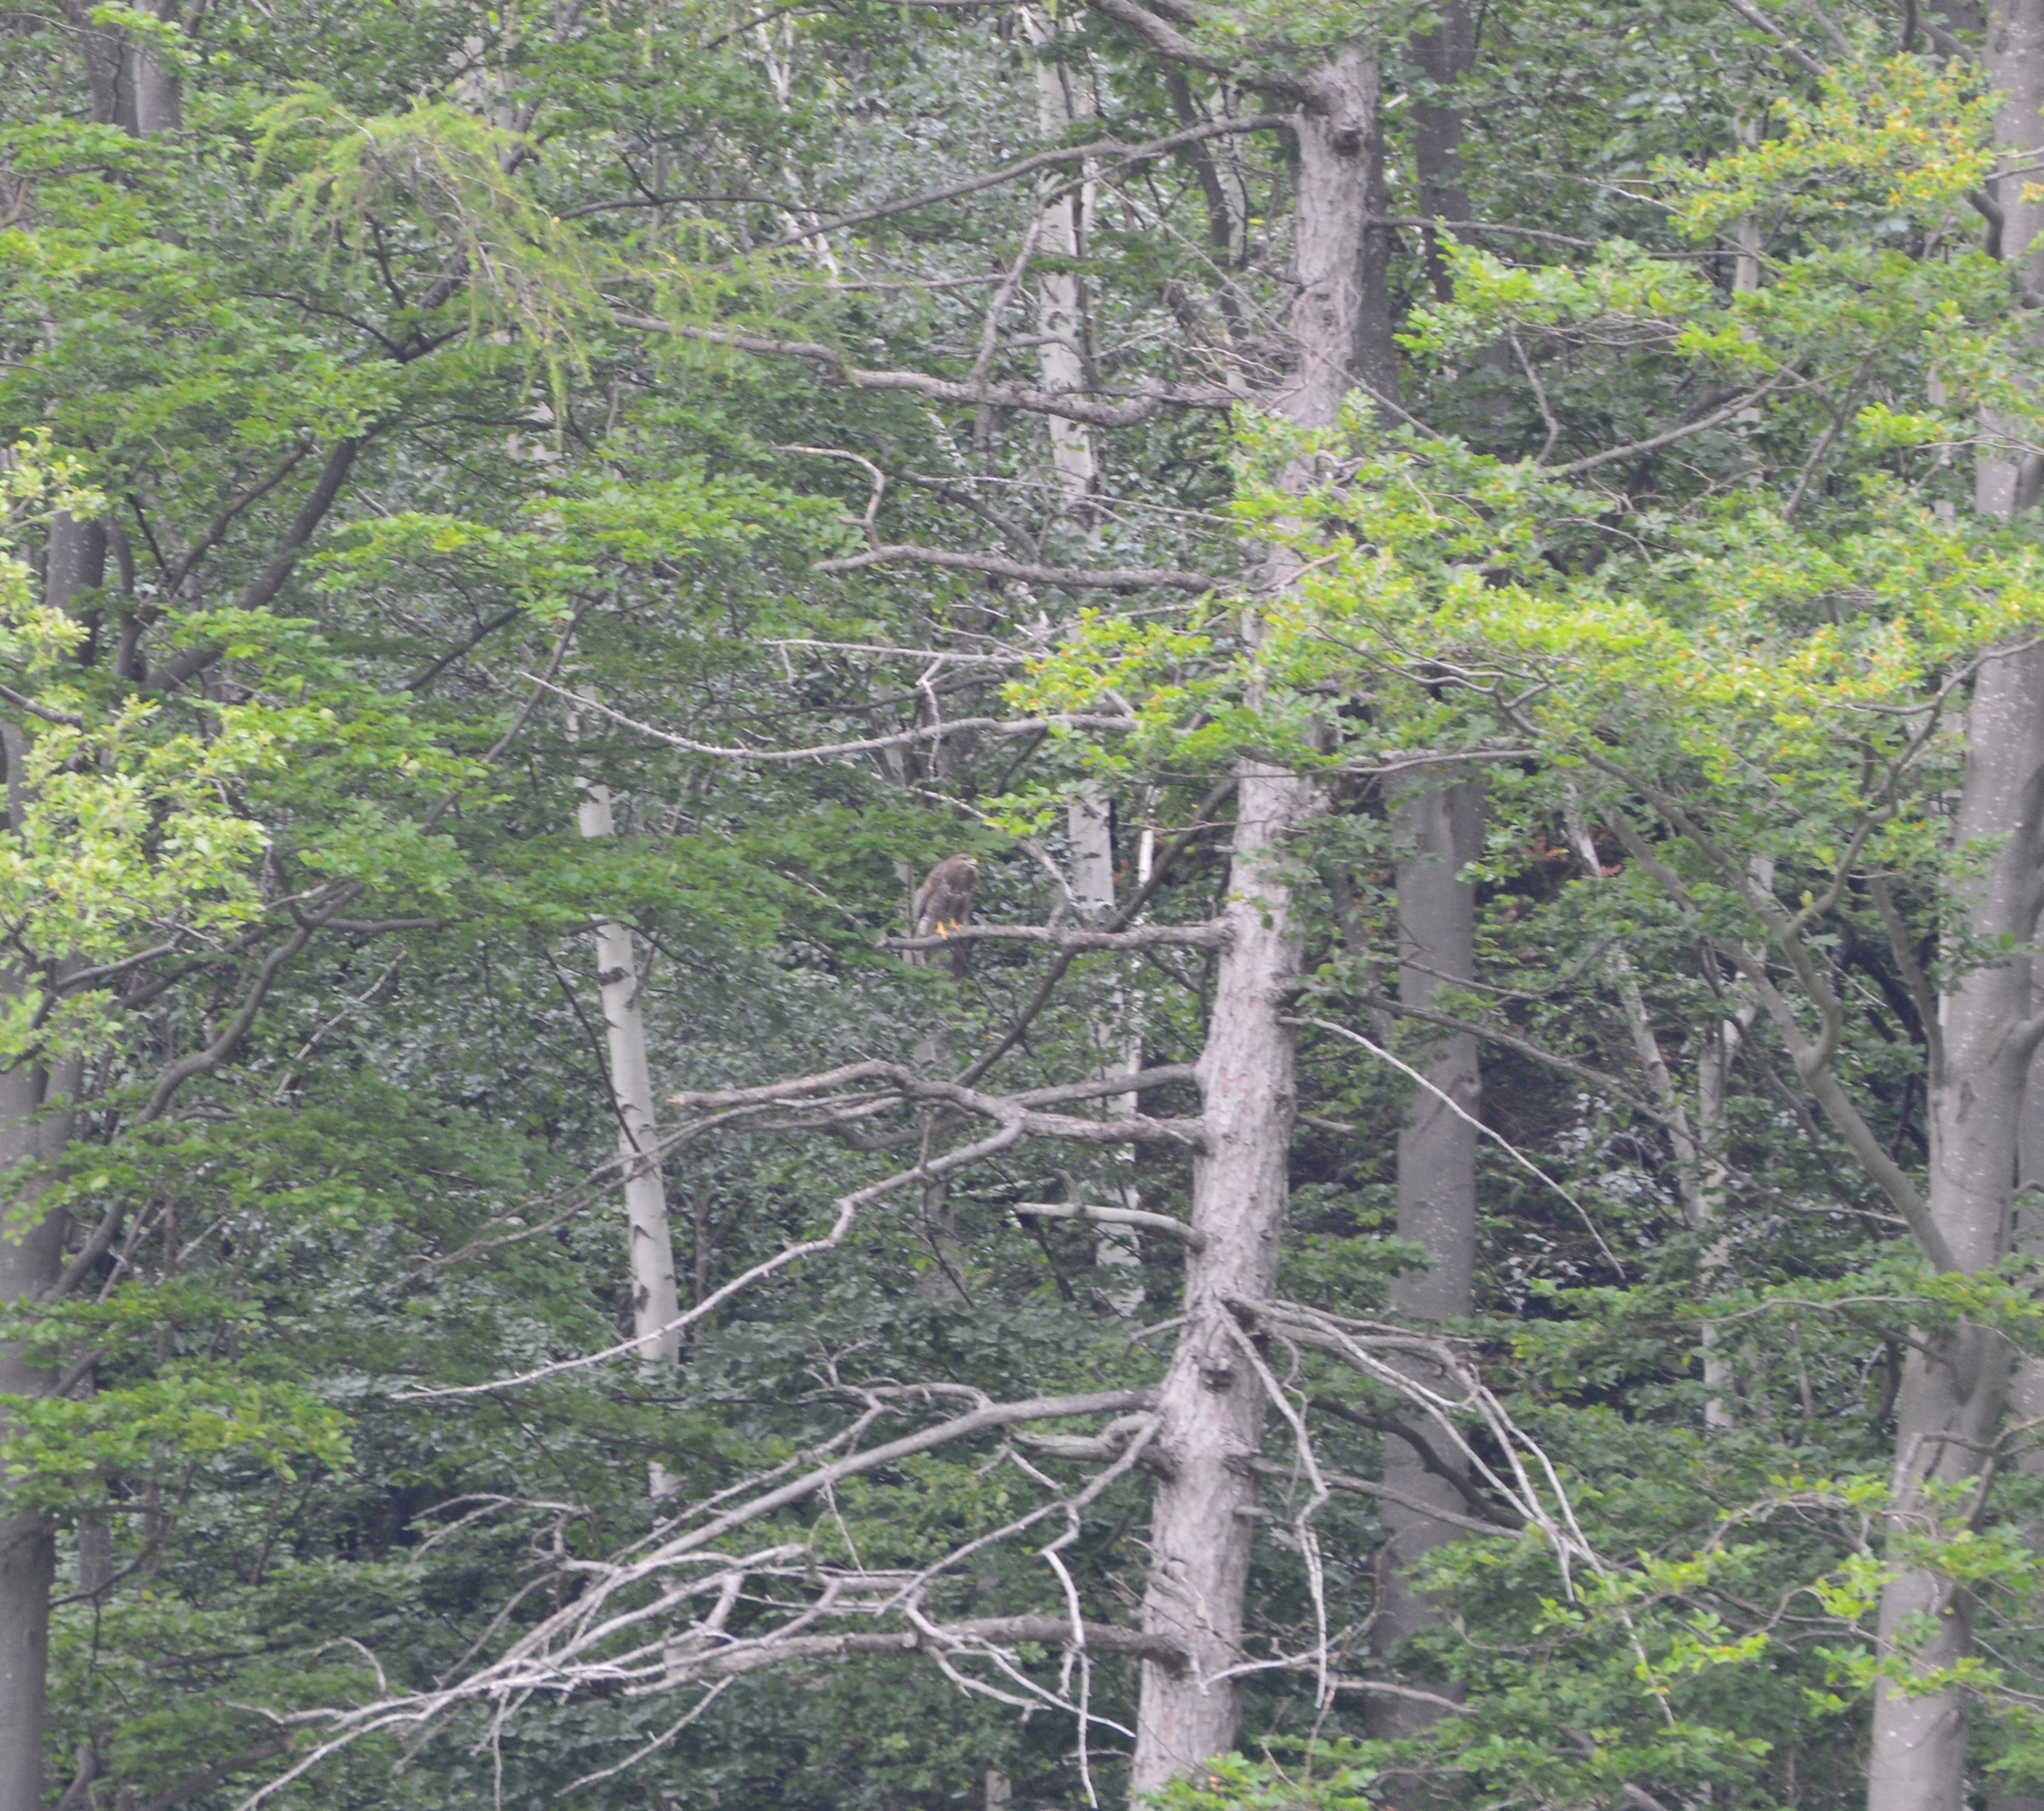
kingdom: Animalia
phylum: Chordata
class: Aves
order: Accipitriformes
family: Accipitridae
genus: Buteo
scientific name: Buteo buteo
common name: Common buzzard
